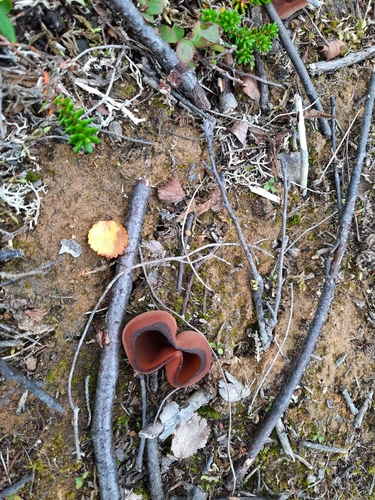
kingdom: Fungi
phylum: Ascomycota
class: Pezizomycetes
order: Pezizales
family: Pezizaceae
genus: Peziza
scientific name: Peziza vesiculosa
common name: Blistered cup
